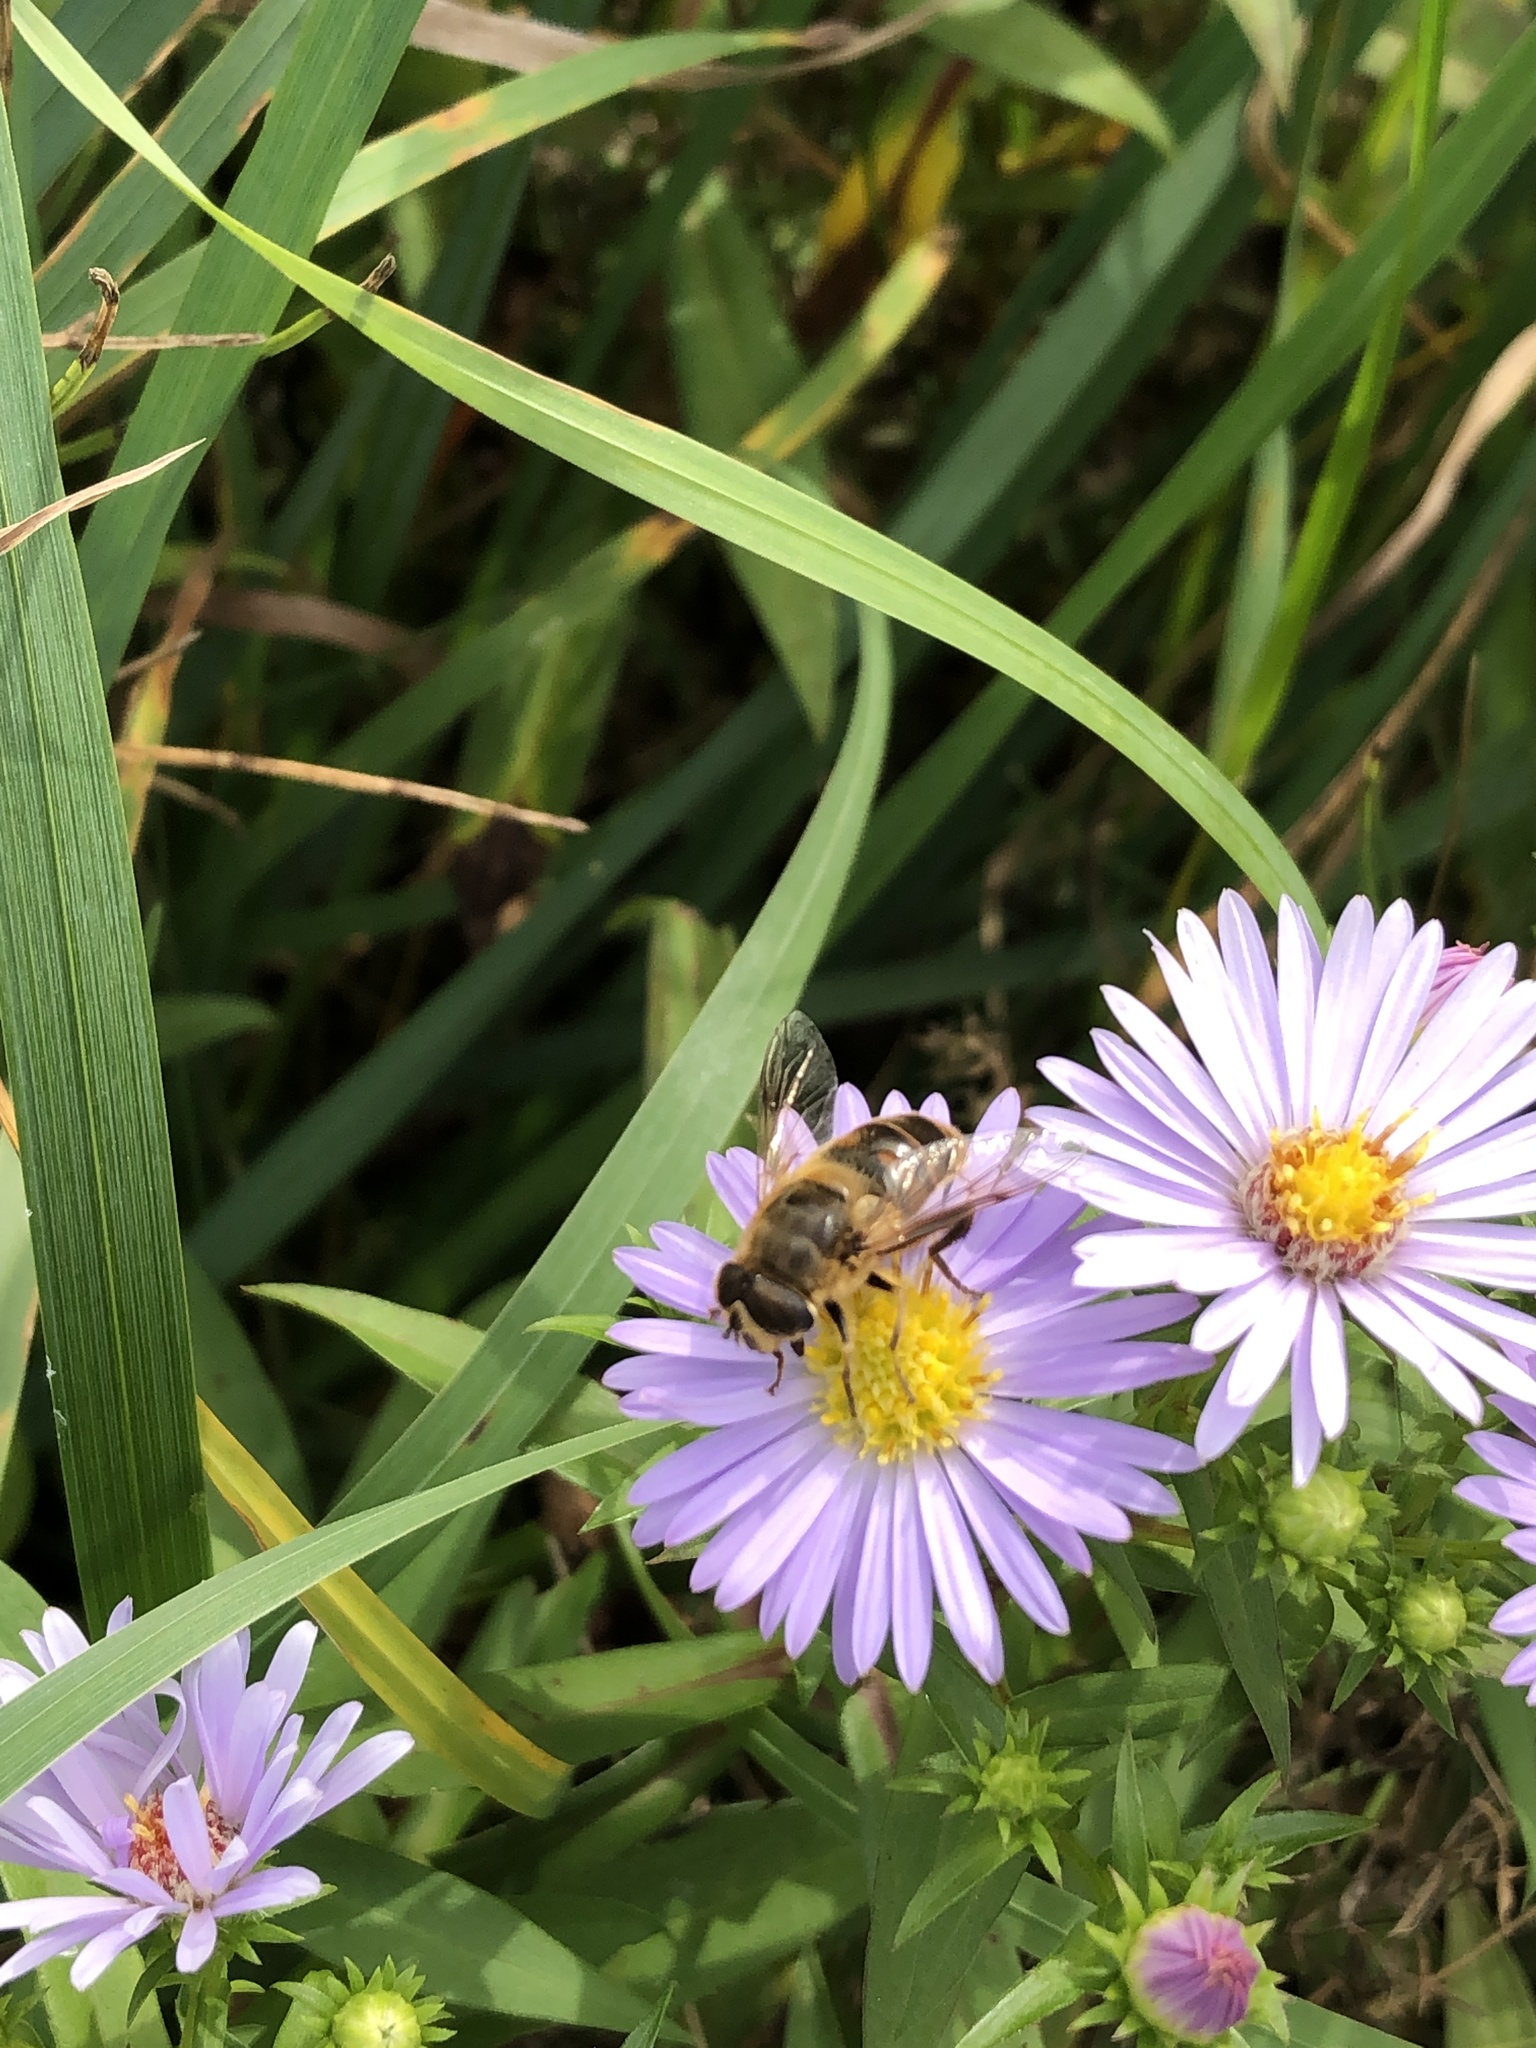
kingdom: Animalia
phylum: Arthropoda
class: Insecta
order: Diptera
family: Syrphidae
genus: Eristalis
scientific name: Eristalis tenax
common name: Drone fly
